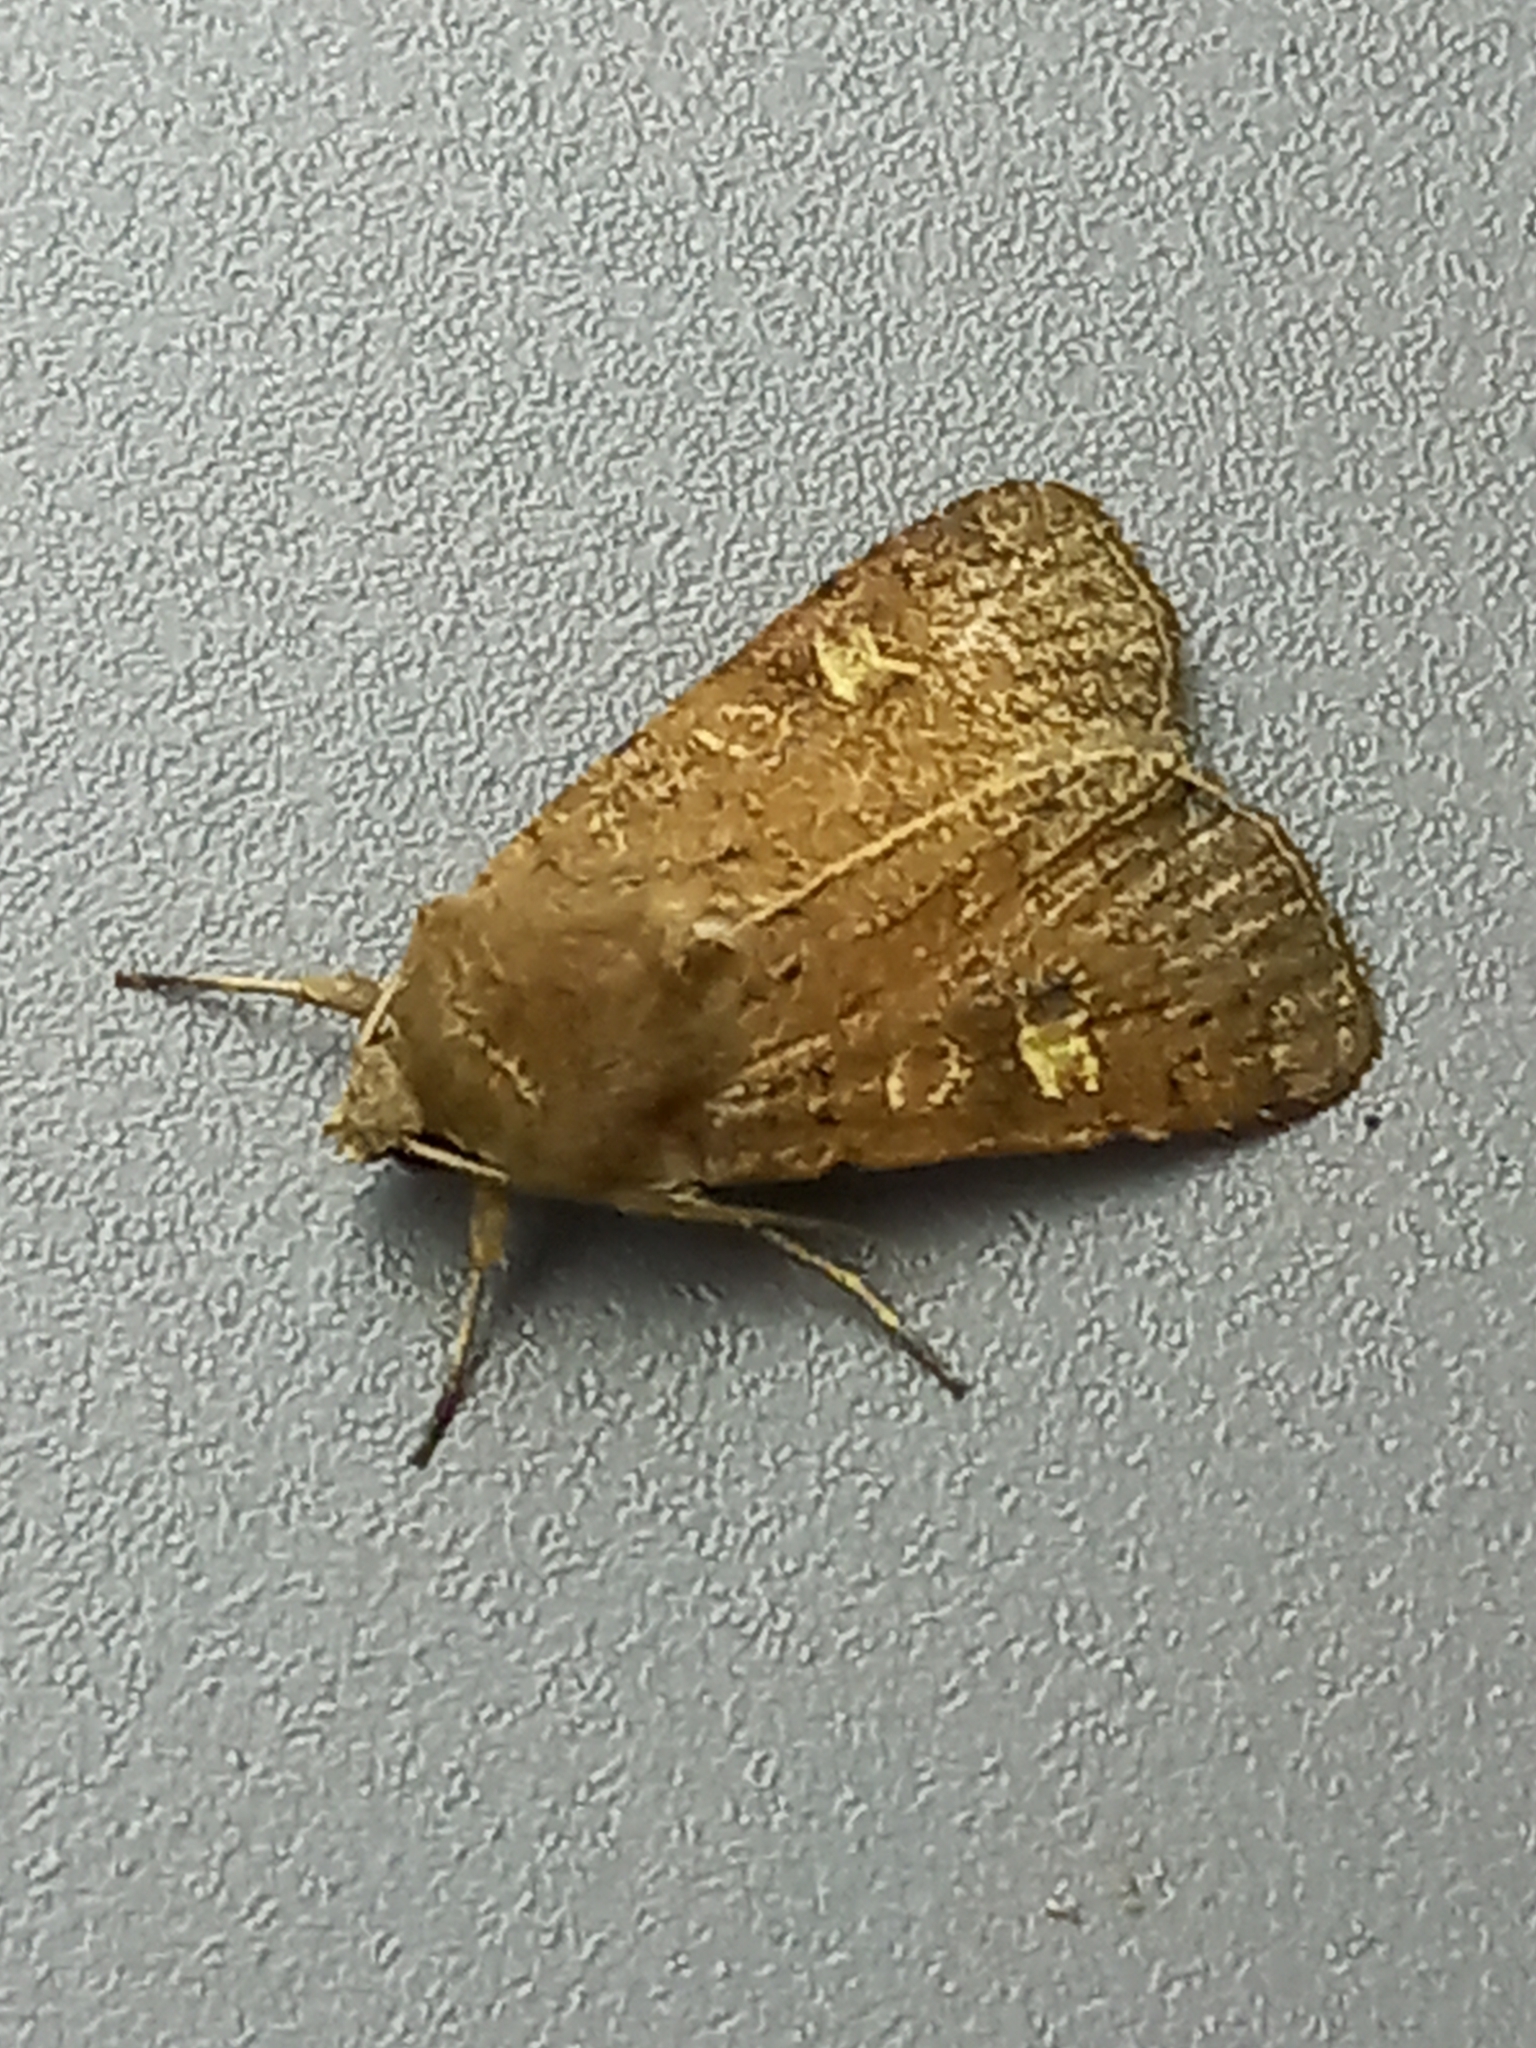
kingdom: Animalia
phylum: Arthropoda
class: Insecta
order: Lepidoptera
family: Noctuidae
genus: Xestia
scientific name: Xestia xanthographa
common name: Square-spot rustic
